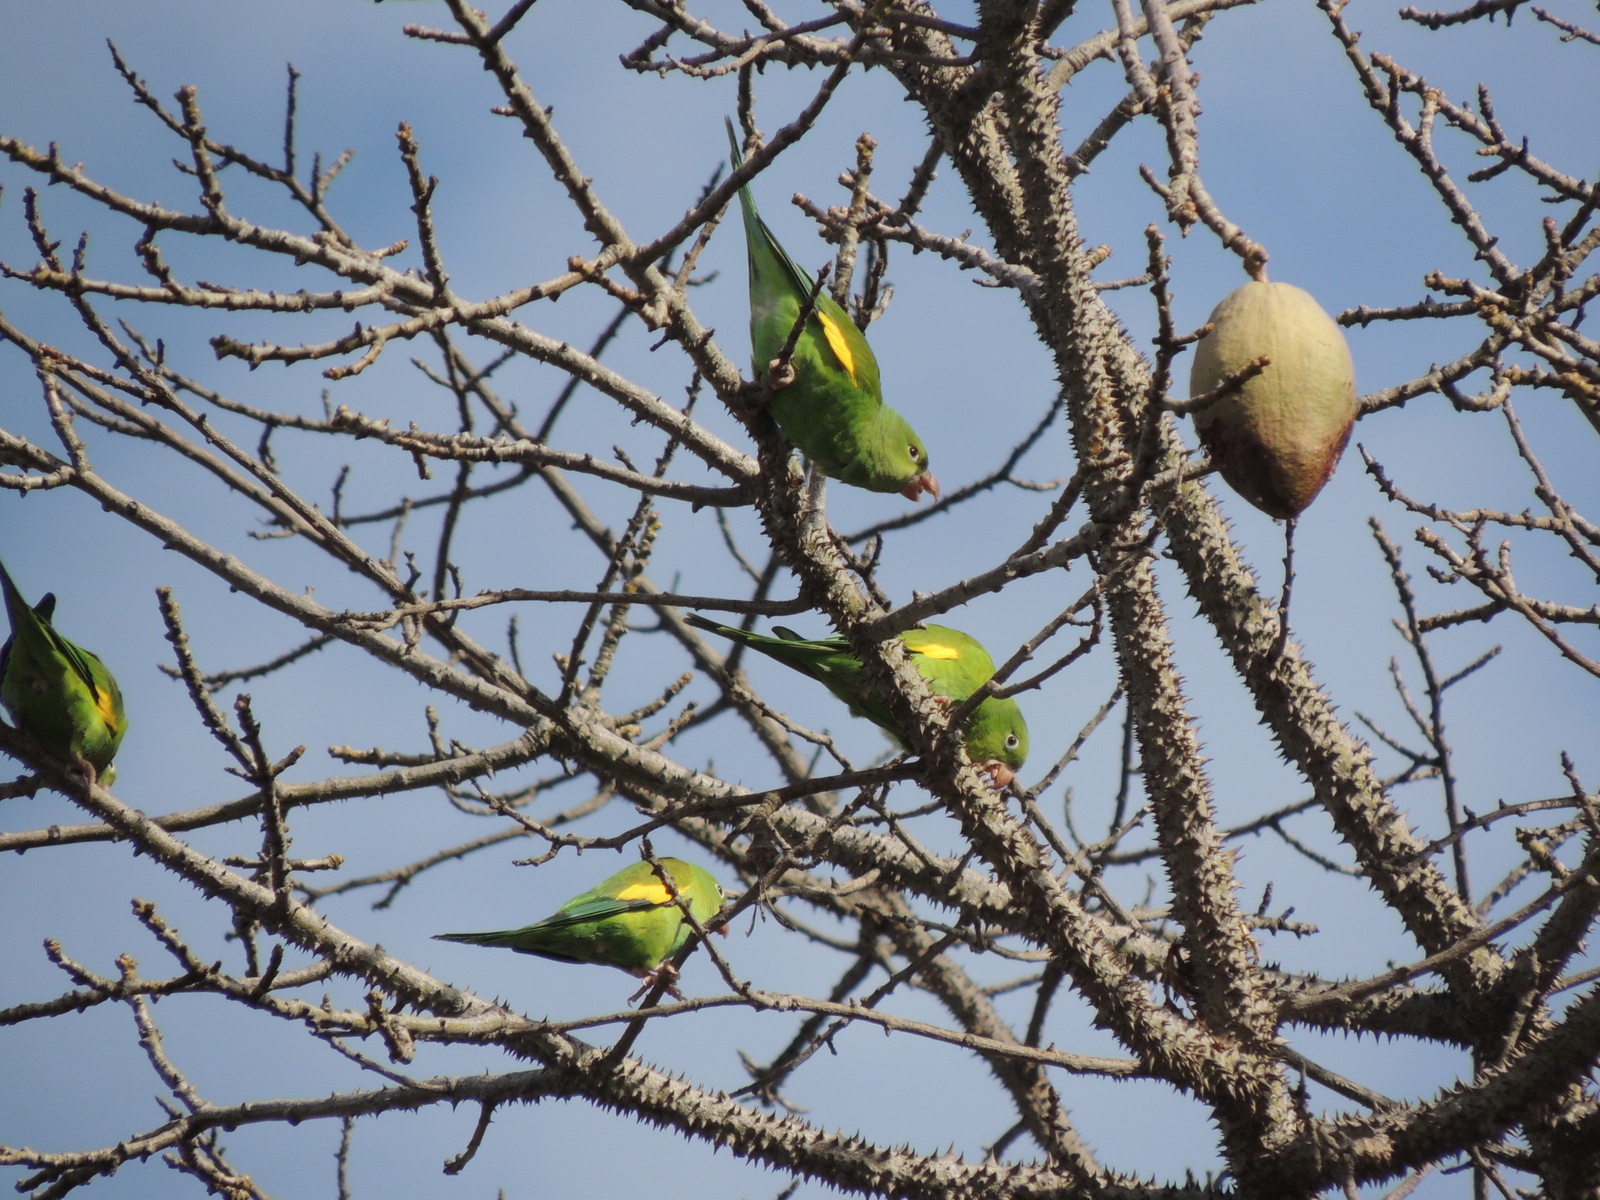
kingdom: Animalia
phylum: Chordata
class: Aves
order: Psittaciformes
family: Psittacidae
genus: Brotogeris
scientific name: Brotogeris chiriri
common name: Yellow-chevroned parakeet
